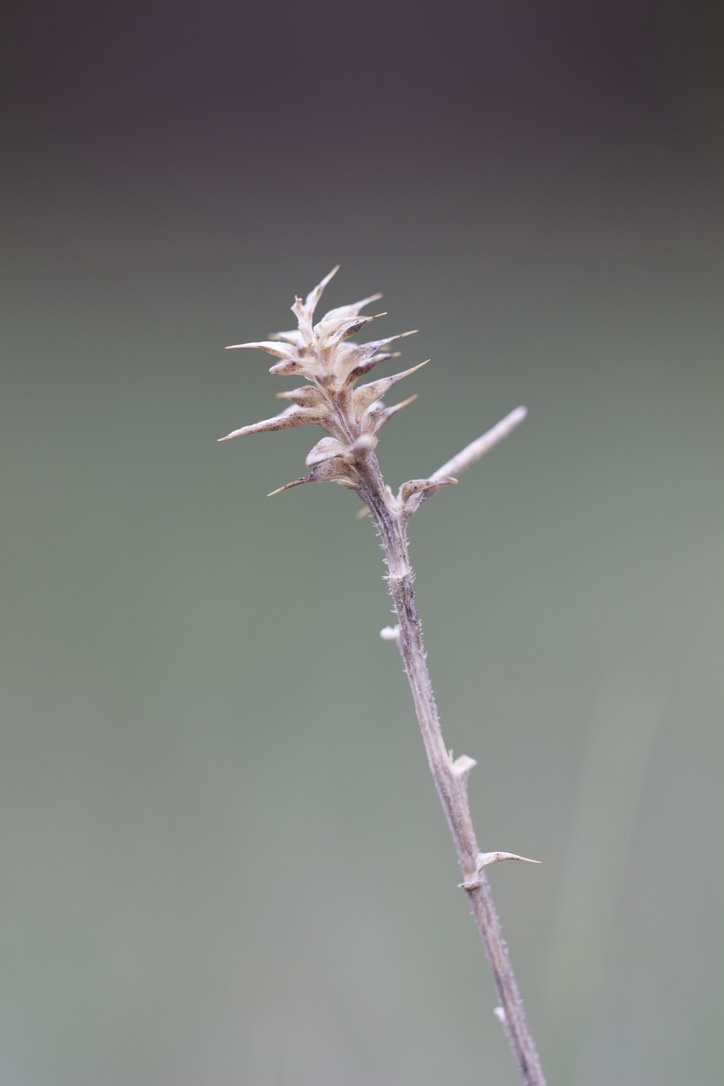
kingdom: Plantae
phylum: Tracheophyta
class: Magnoliopsida
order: Caryophyllales
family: Amaranthaceae
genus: Salsola
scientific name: Salsola tragus
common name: Prickly russian thistle
